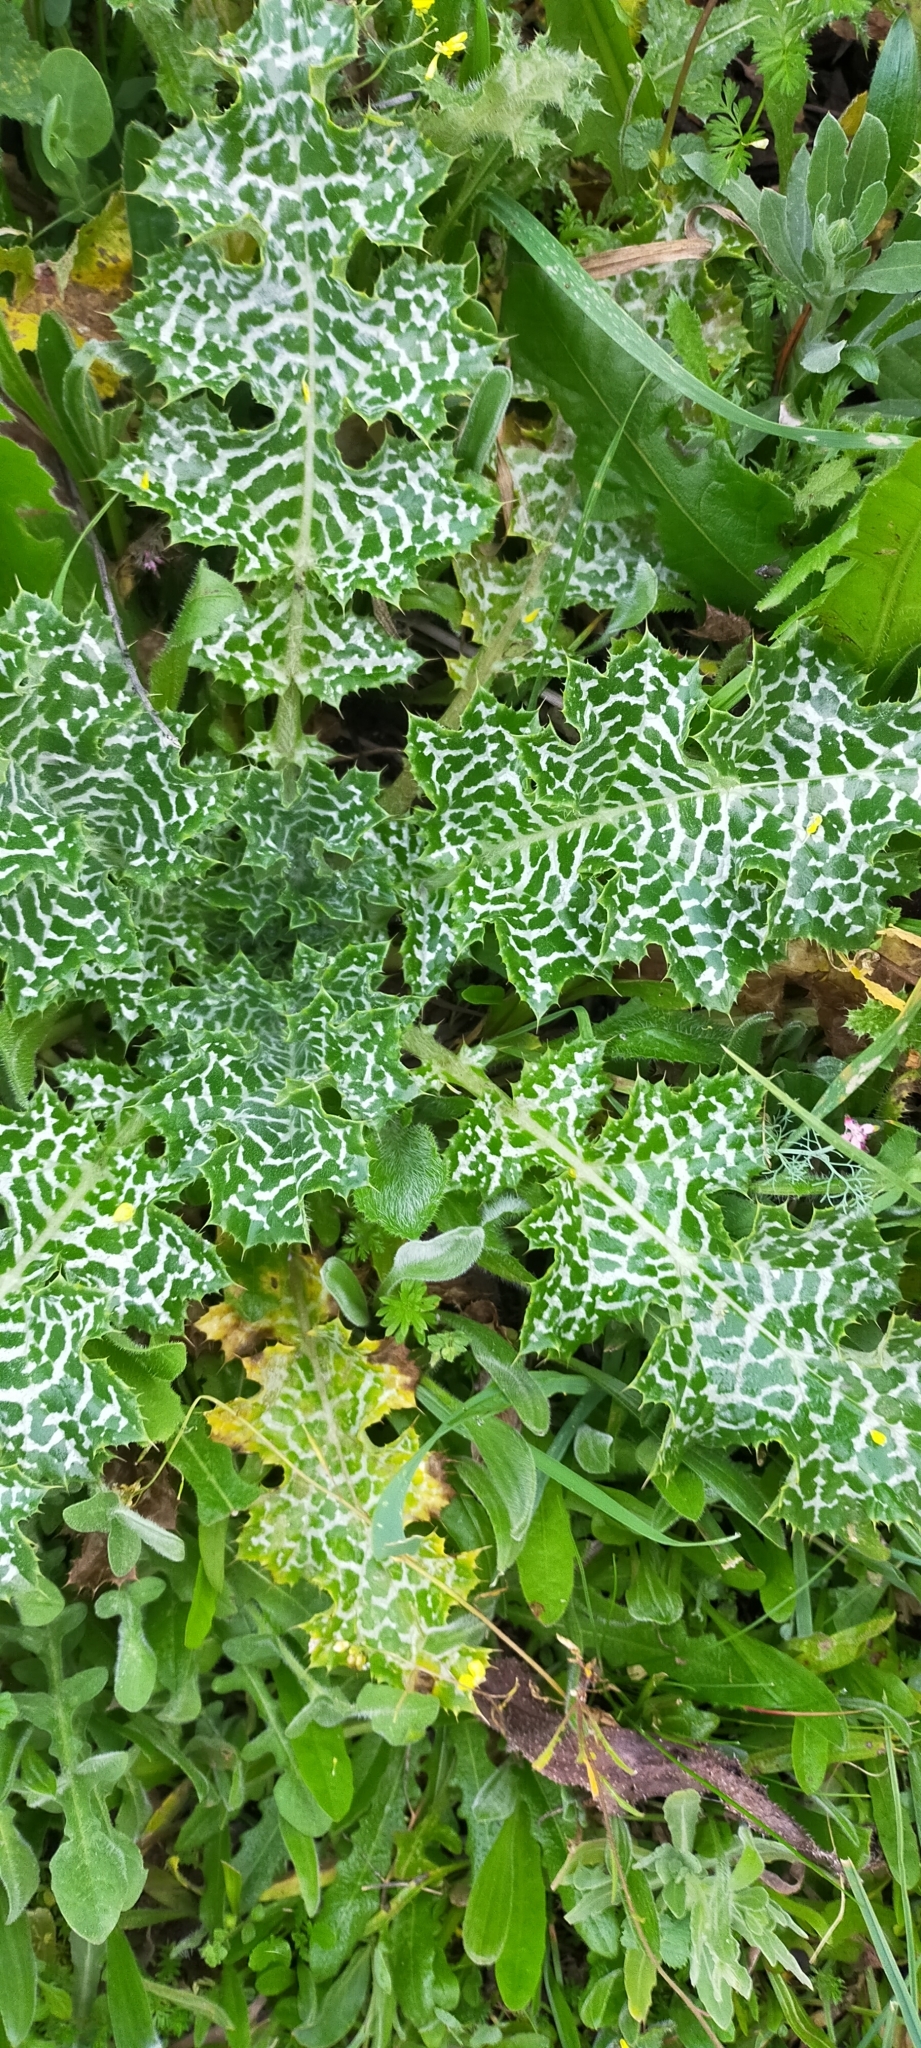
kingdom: Plantae
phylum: Tracheophyta
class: Magnoliopsida
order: Asterales
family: Asteraceae
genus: Silybum
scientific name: Silybum marianum
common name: Milk thistle
